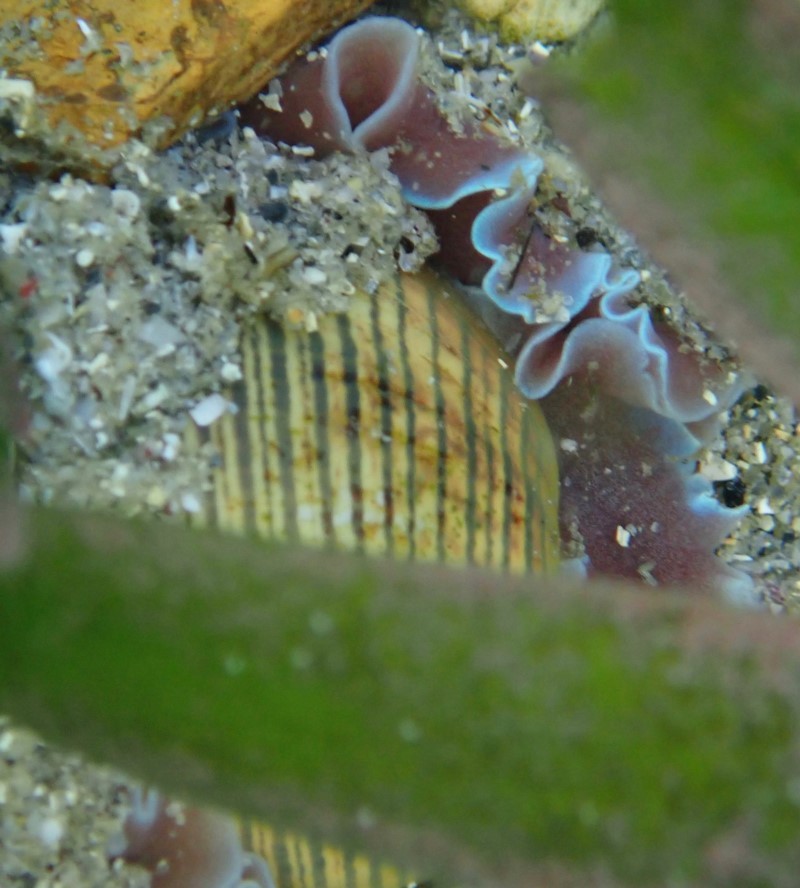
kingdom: Animalia
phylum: Mollusca
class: Gastropoda
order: Cephalaspidea
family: Aplustridae
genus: Hydatina
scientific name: Hydatina physis
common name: Brown-line paperbubble
